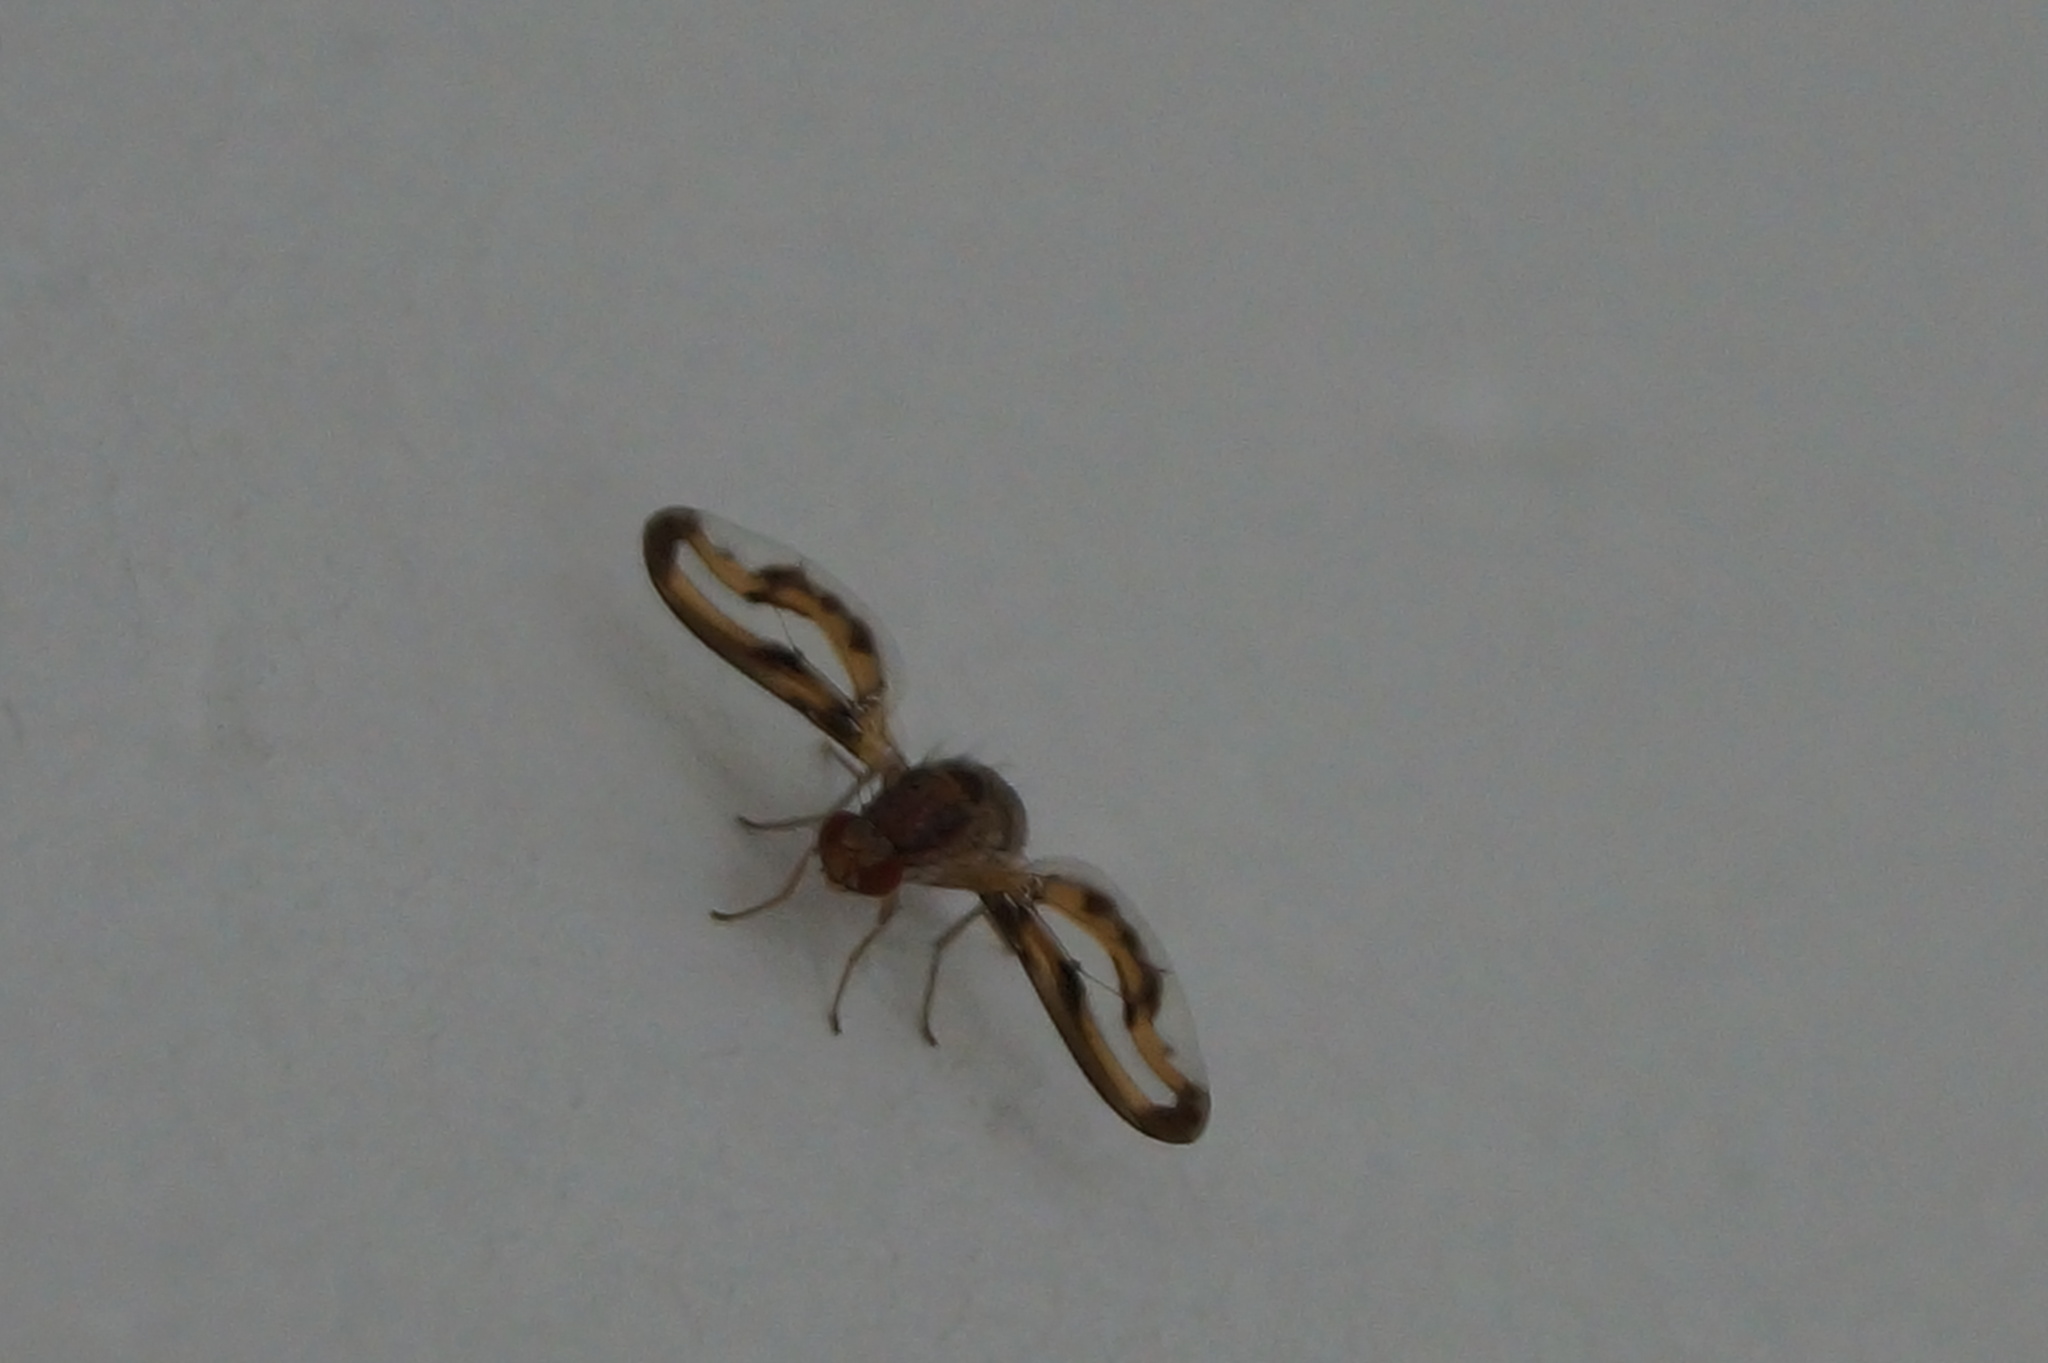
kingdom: Animalia
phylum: Arthropoda
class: Insecta
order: Diptera
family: Pallopteridae
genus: Toxonevra
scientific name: Toxonevra muliebris
